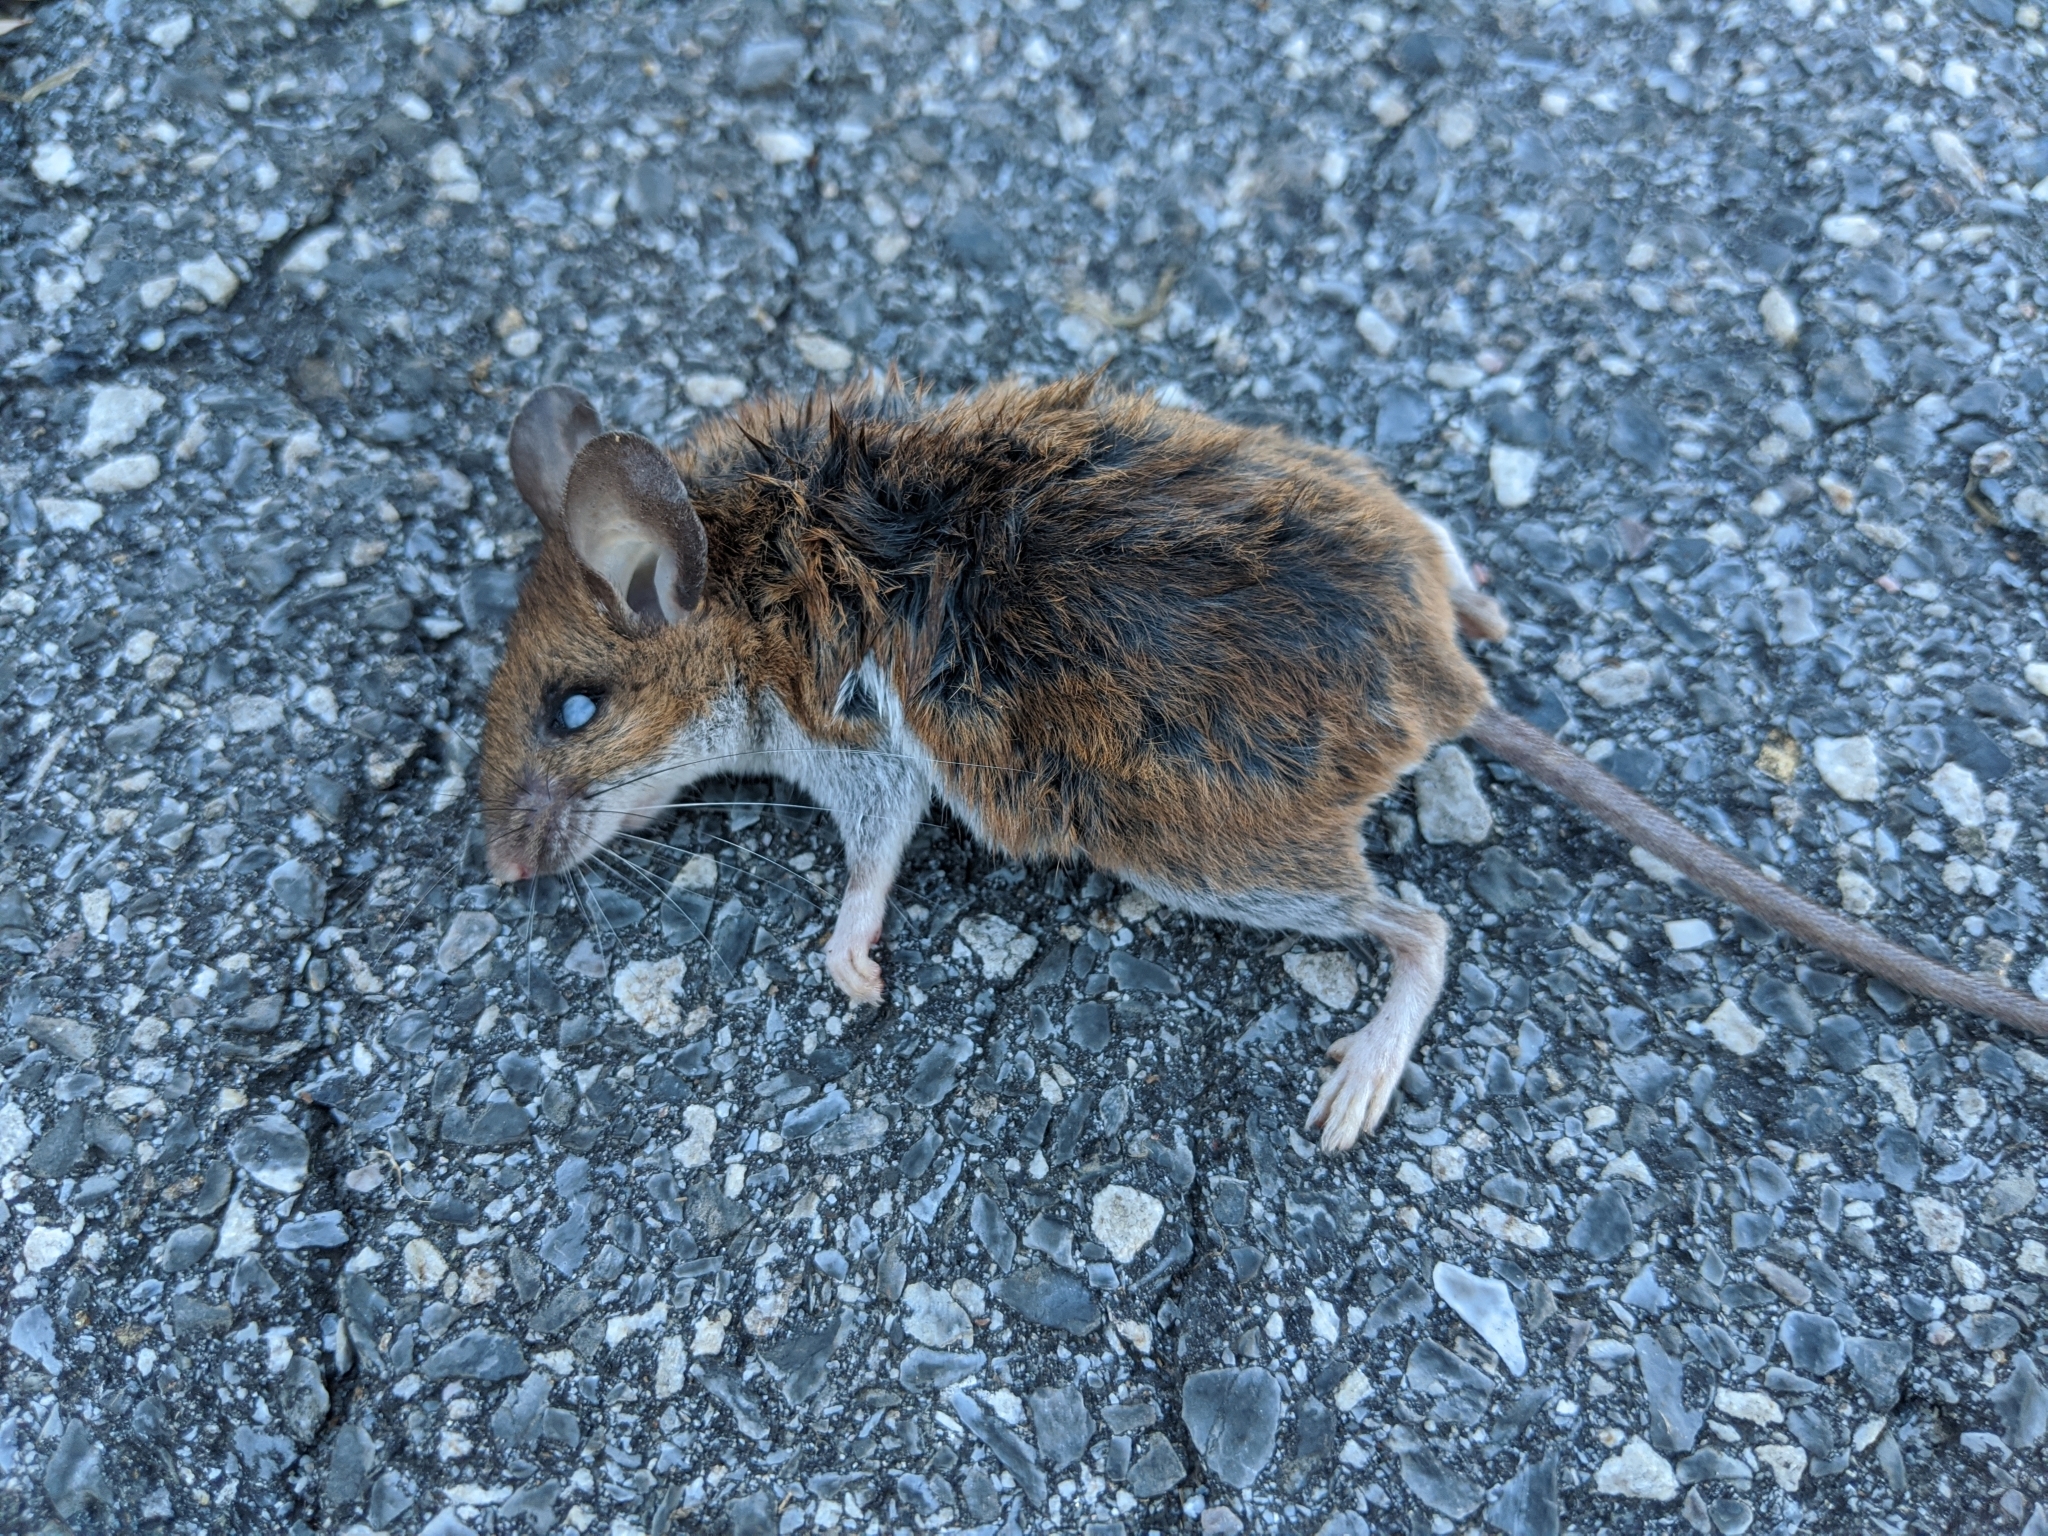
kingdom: Animalia
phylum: Chordata
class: Mammalia
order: Rodentia
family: Cricetidae
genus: Peromyscus
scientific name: Peromyscus leucopus
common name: White-footed deermouse
